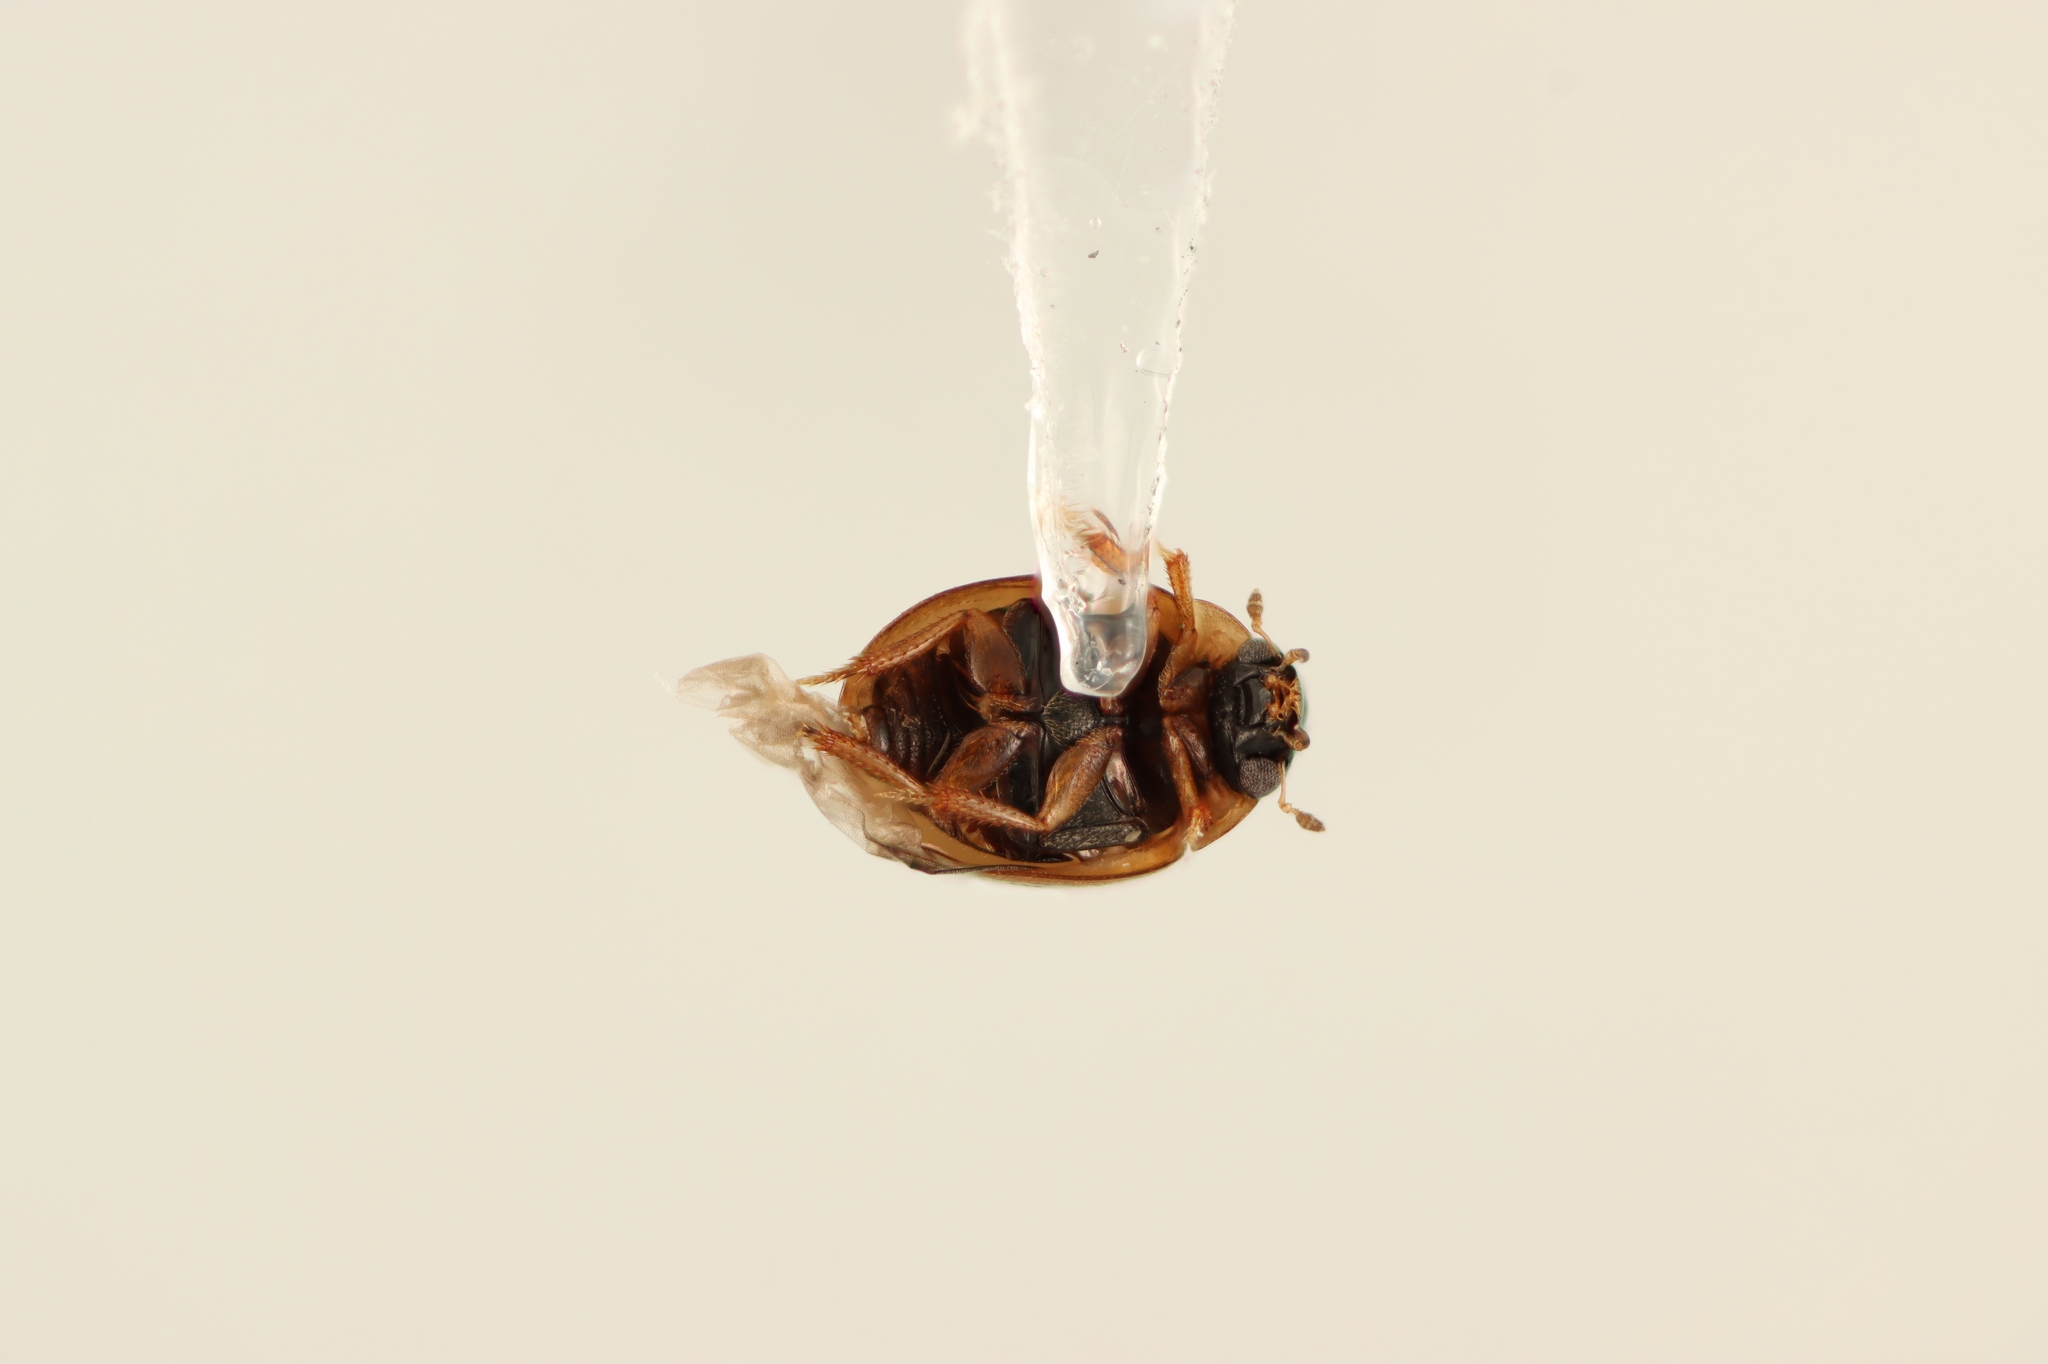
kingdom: Animalia
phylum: Arthropoda
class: Insecta
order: Coleoptera
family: Hydrophilidae
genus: Chaetarthria
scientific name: Chaetarthria pallida
